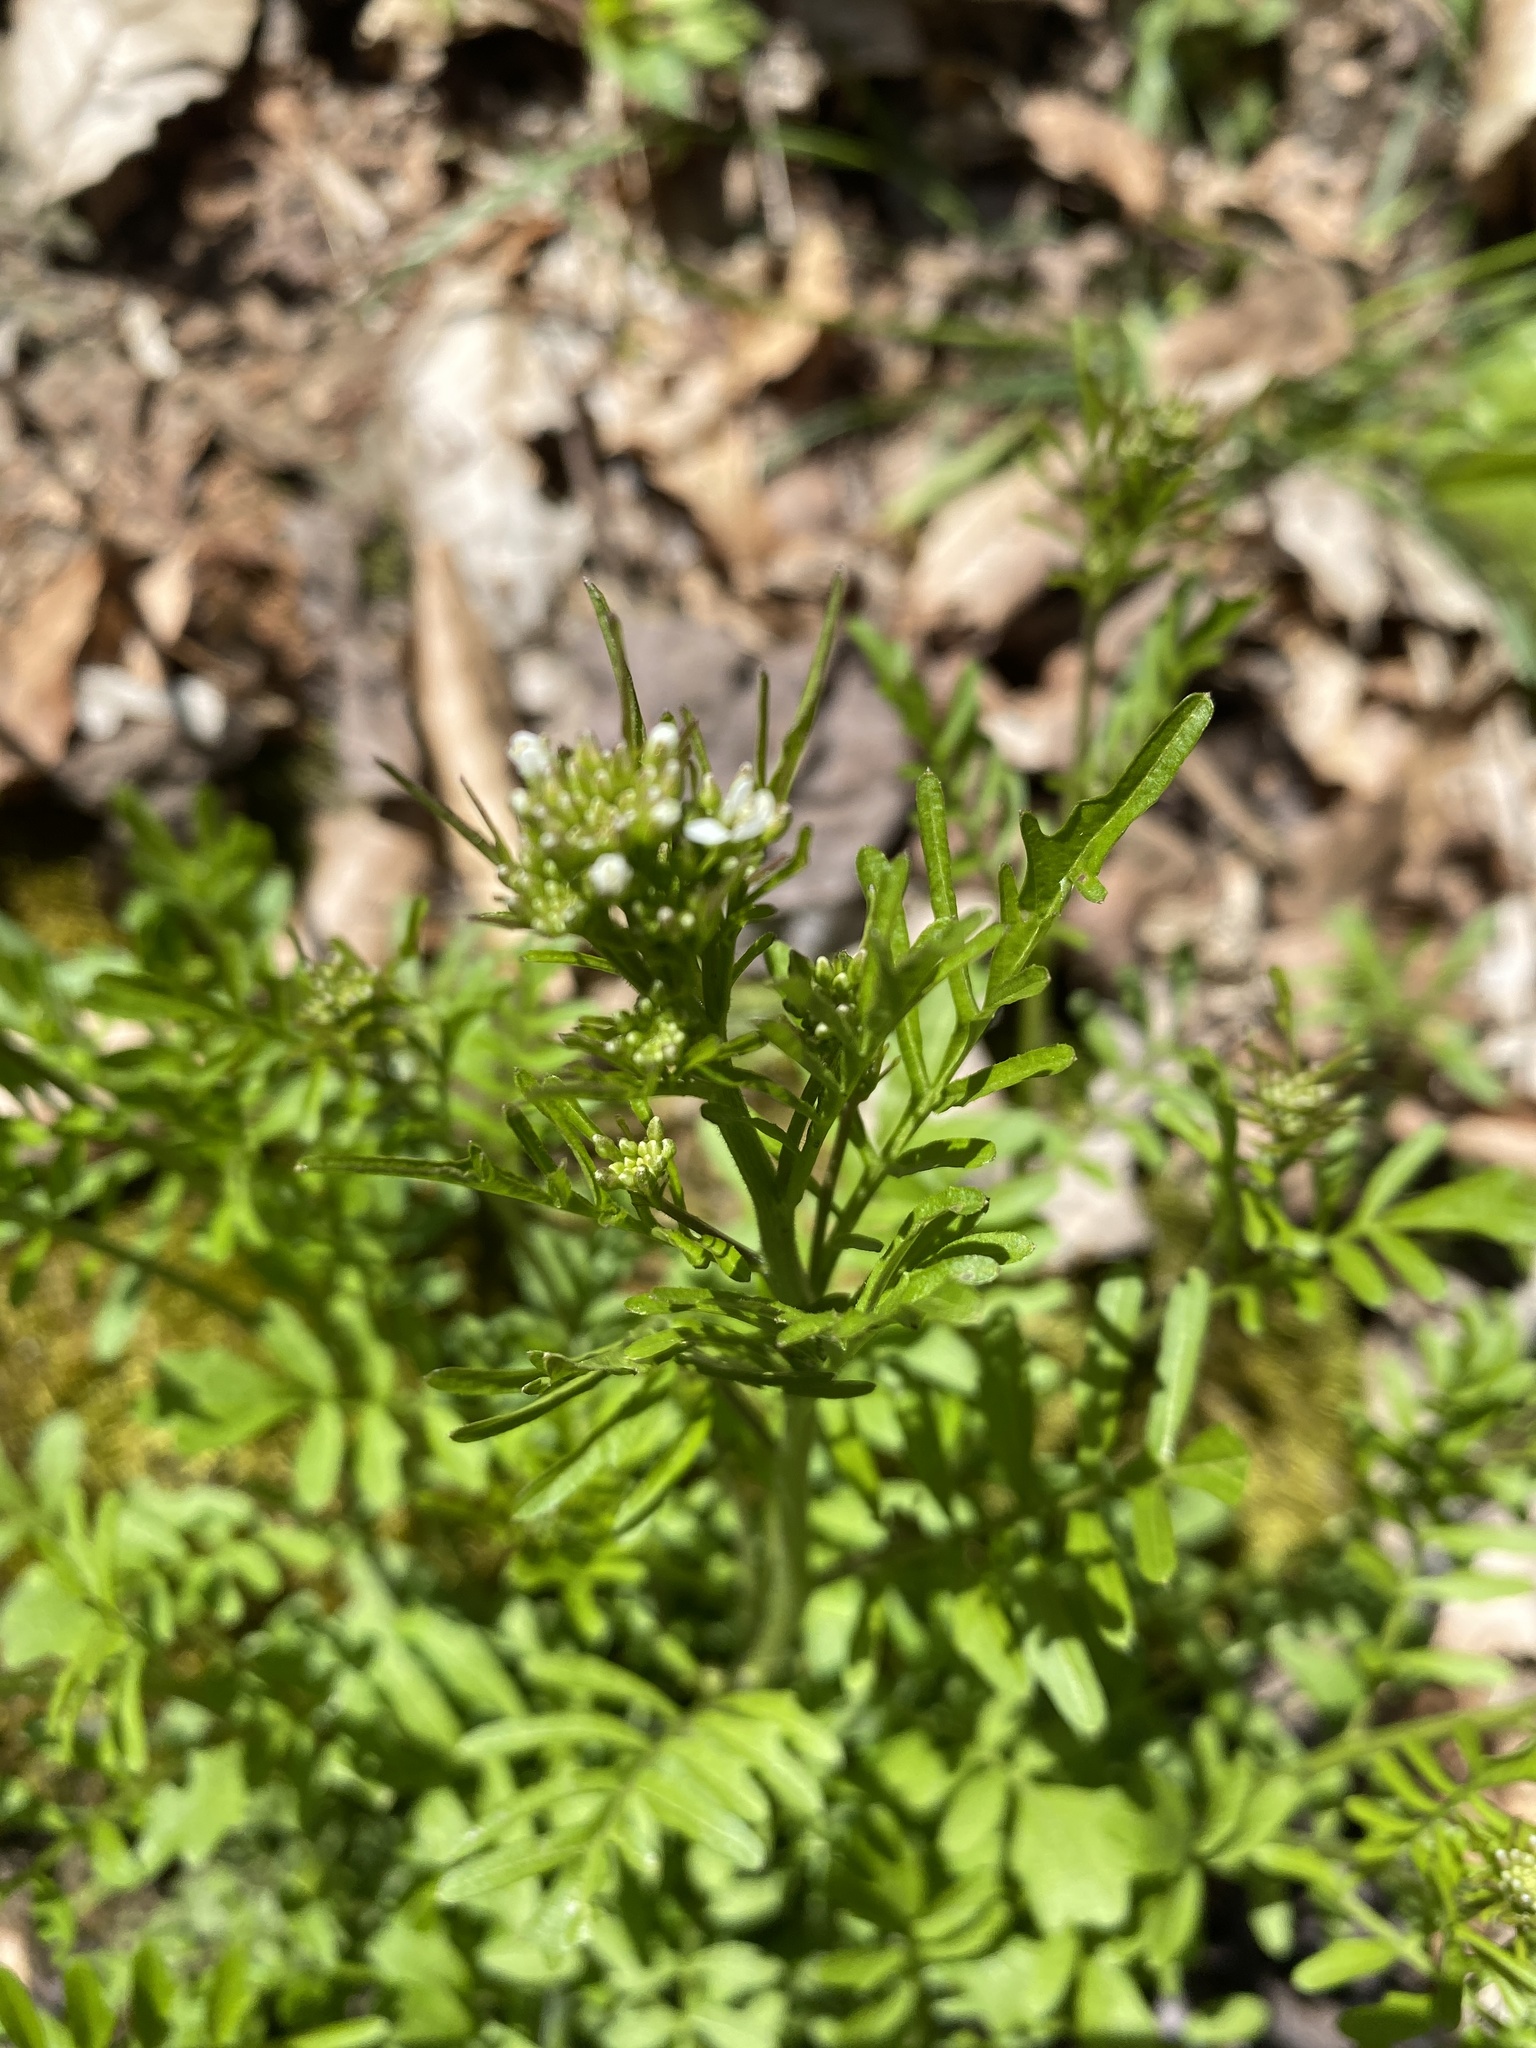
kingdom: Plantae
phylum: Tracheophyta
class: Magnoliopsida
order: Brassicales
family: Brassicaceae
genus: Cardamine
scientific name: Cardamine pensylvanica
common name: Pennsylvania bittercress
